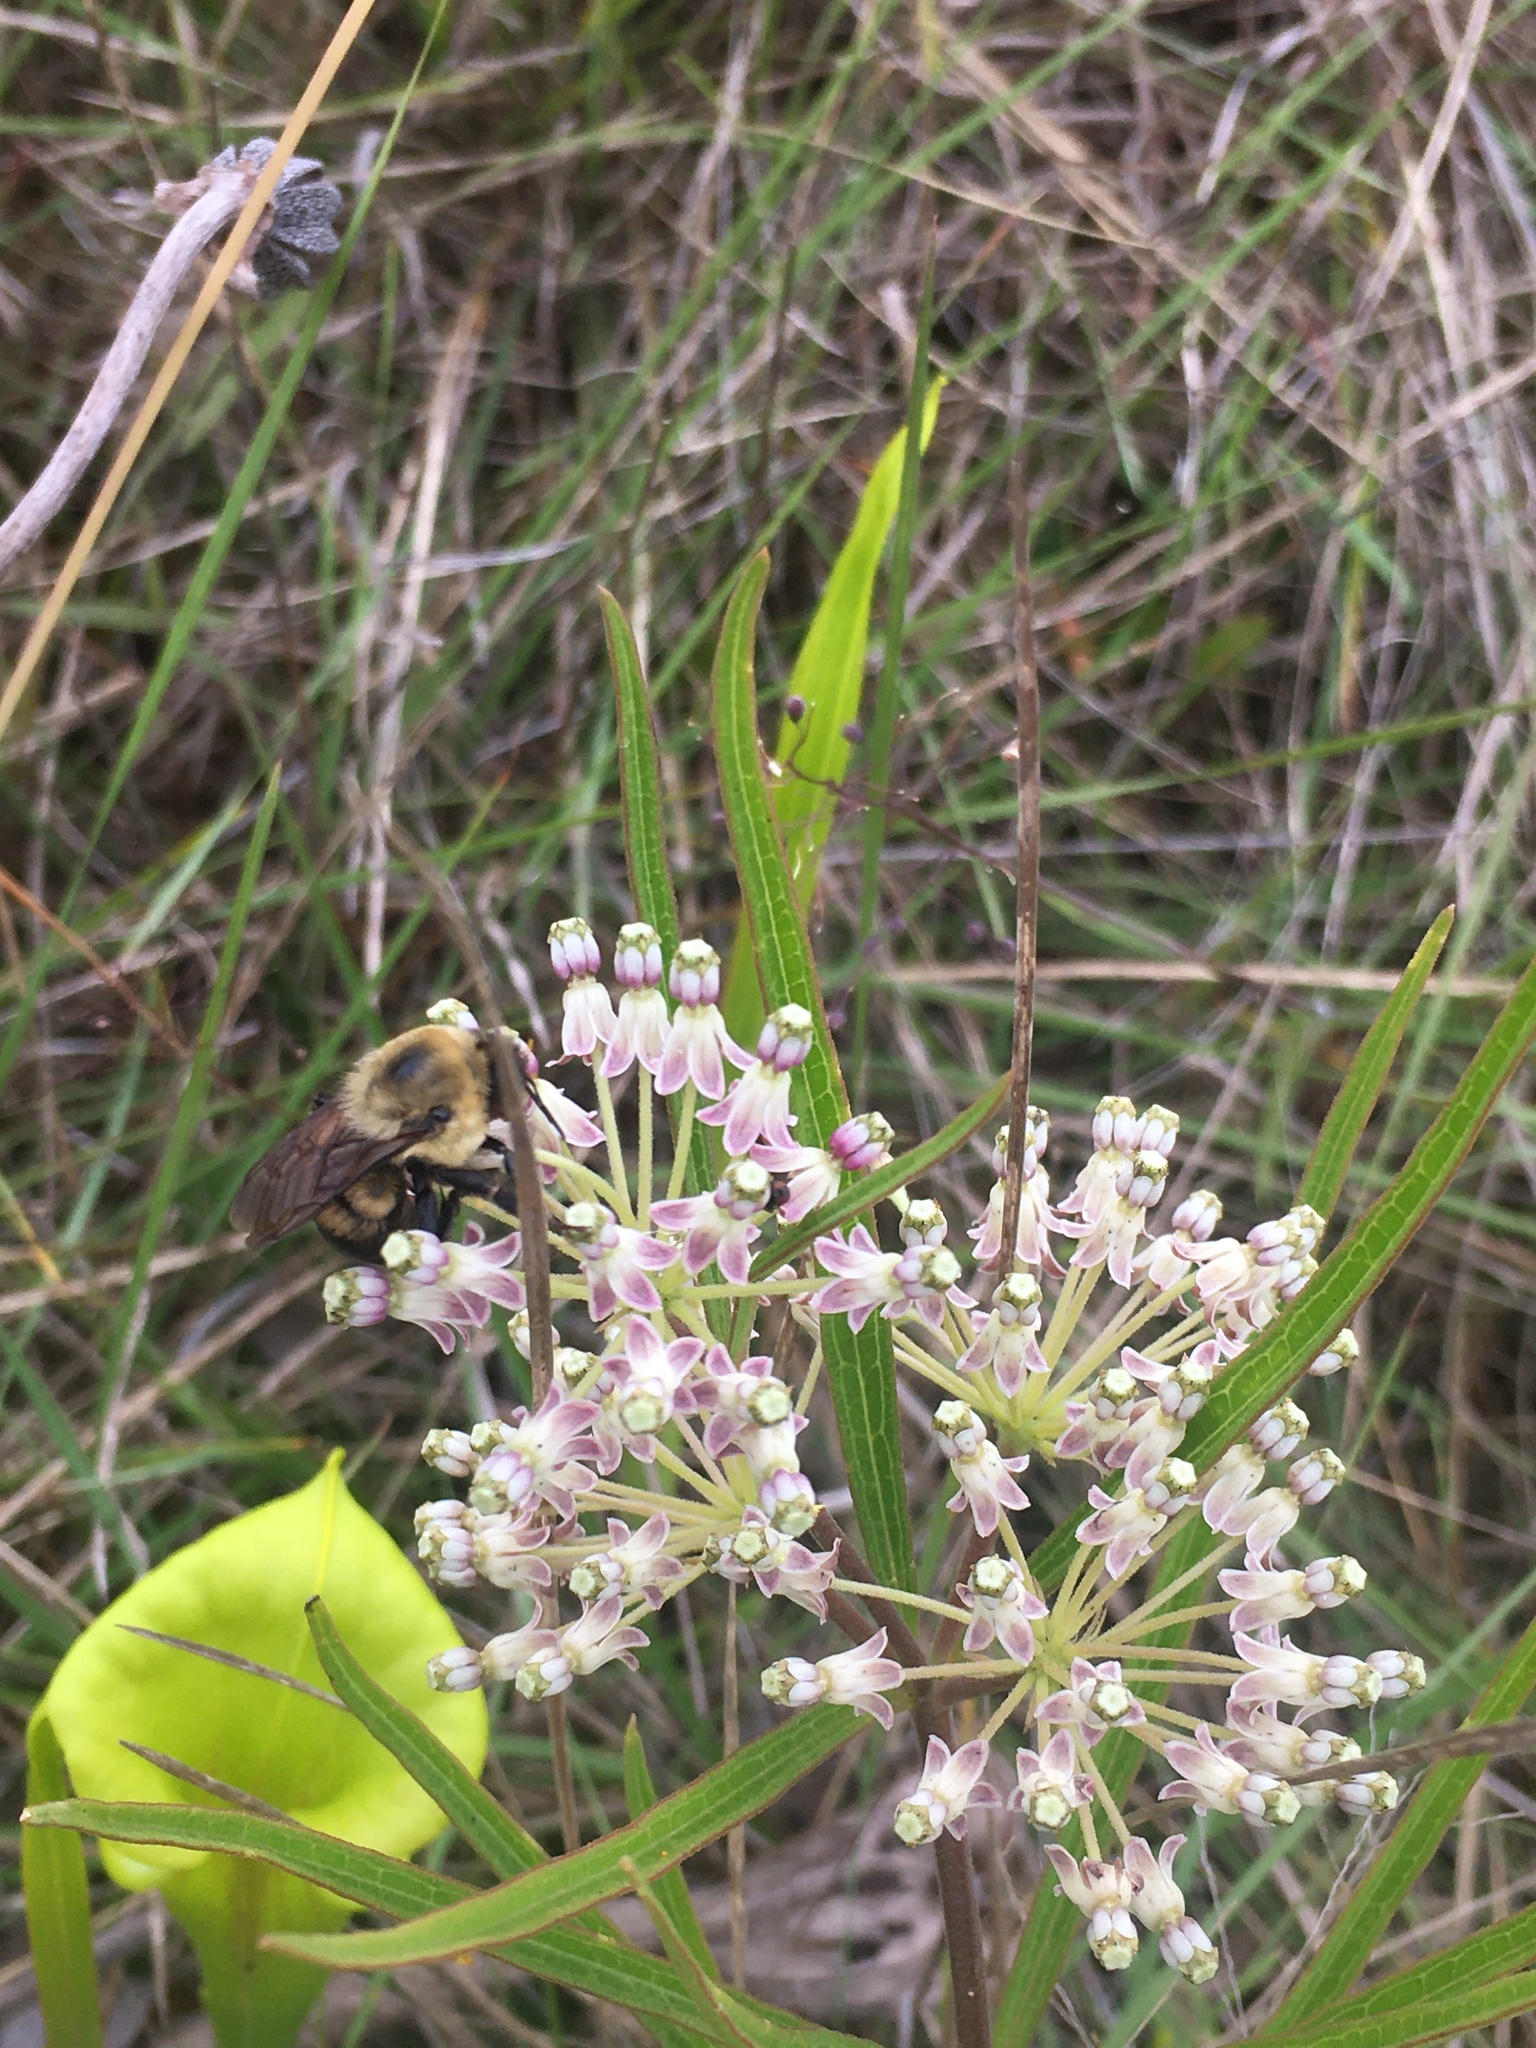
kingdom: Animalia
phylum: Arthropoda
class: Insecta
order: Hymenoptera
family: Apidae
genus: Bombus
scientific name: Bombus griseocollis
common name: Brown-belted bumble bee
